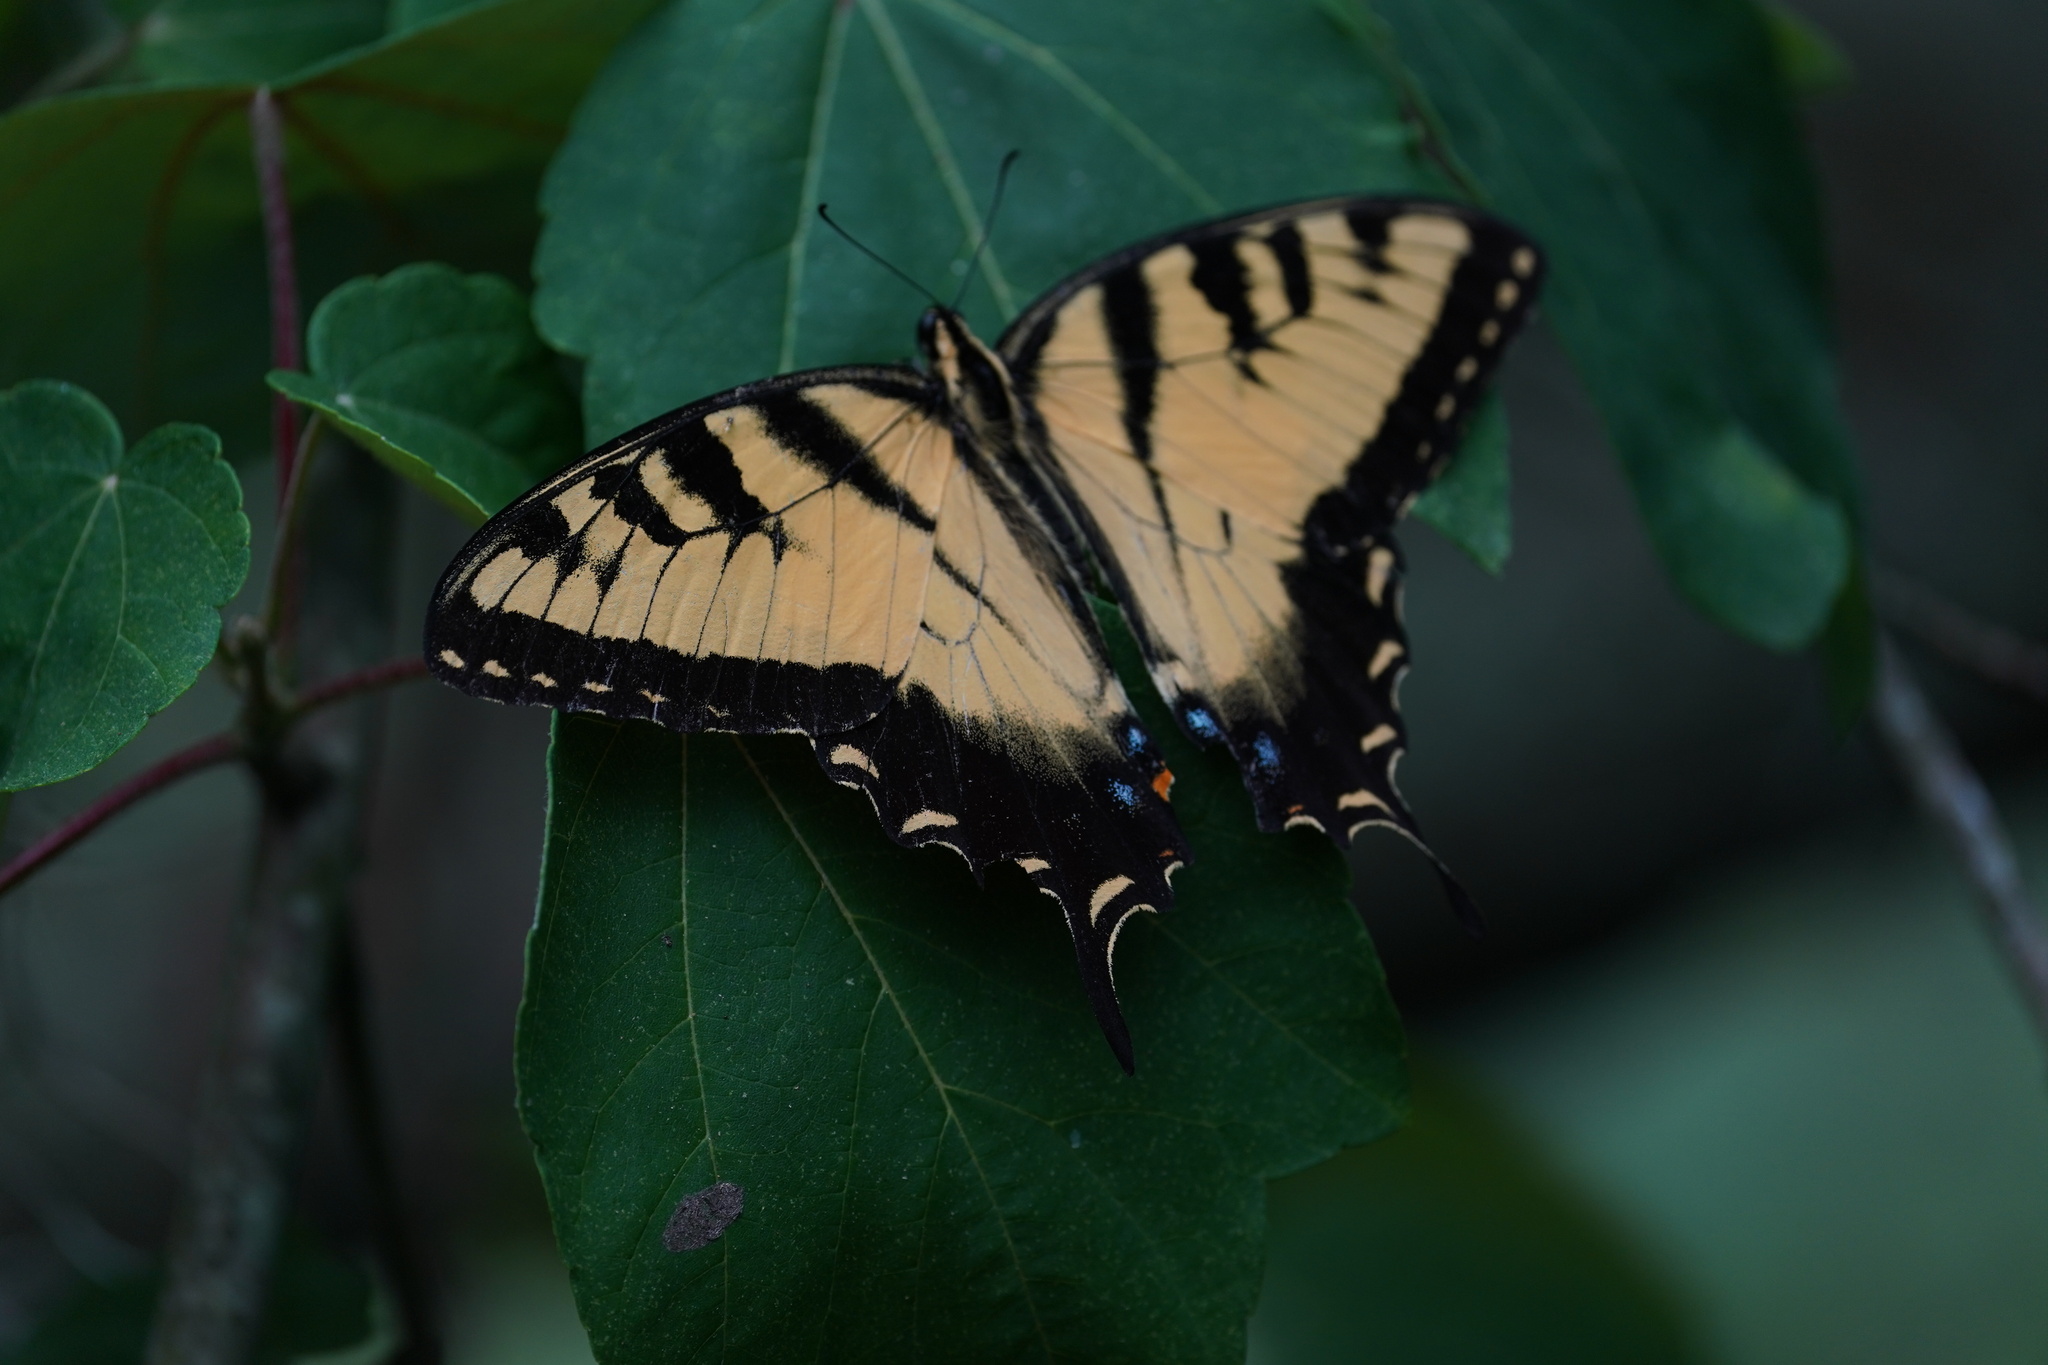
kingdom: Animalia
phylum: Arthropoda
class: Insecta
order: Lepidoptera
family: Papilionidae
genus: Papilio
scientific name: Papilio glaucus
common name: Tiger swallowtail
